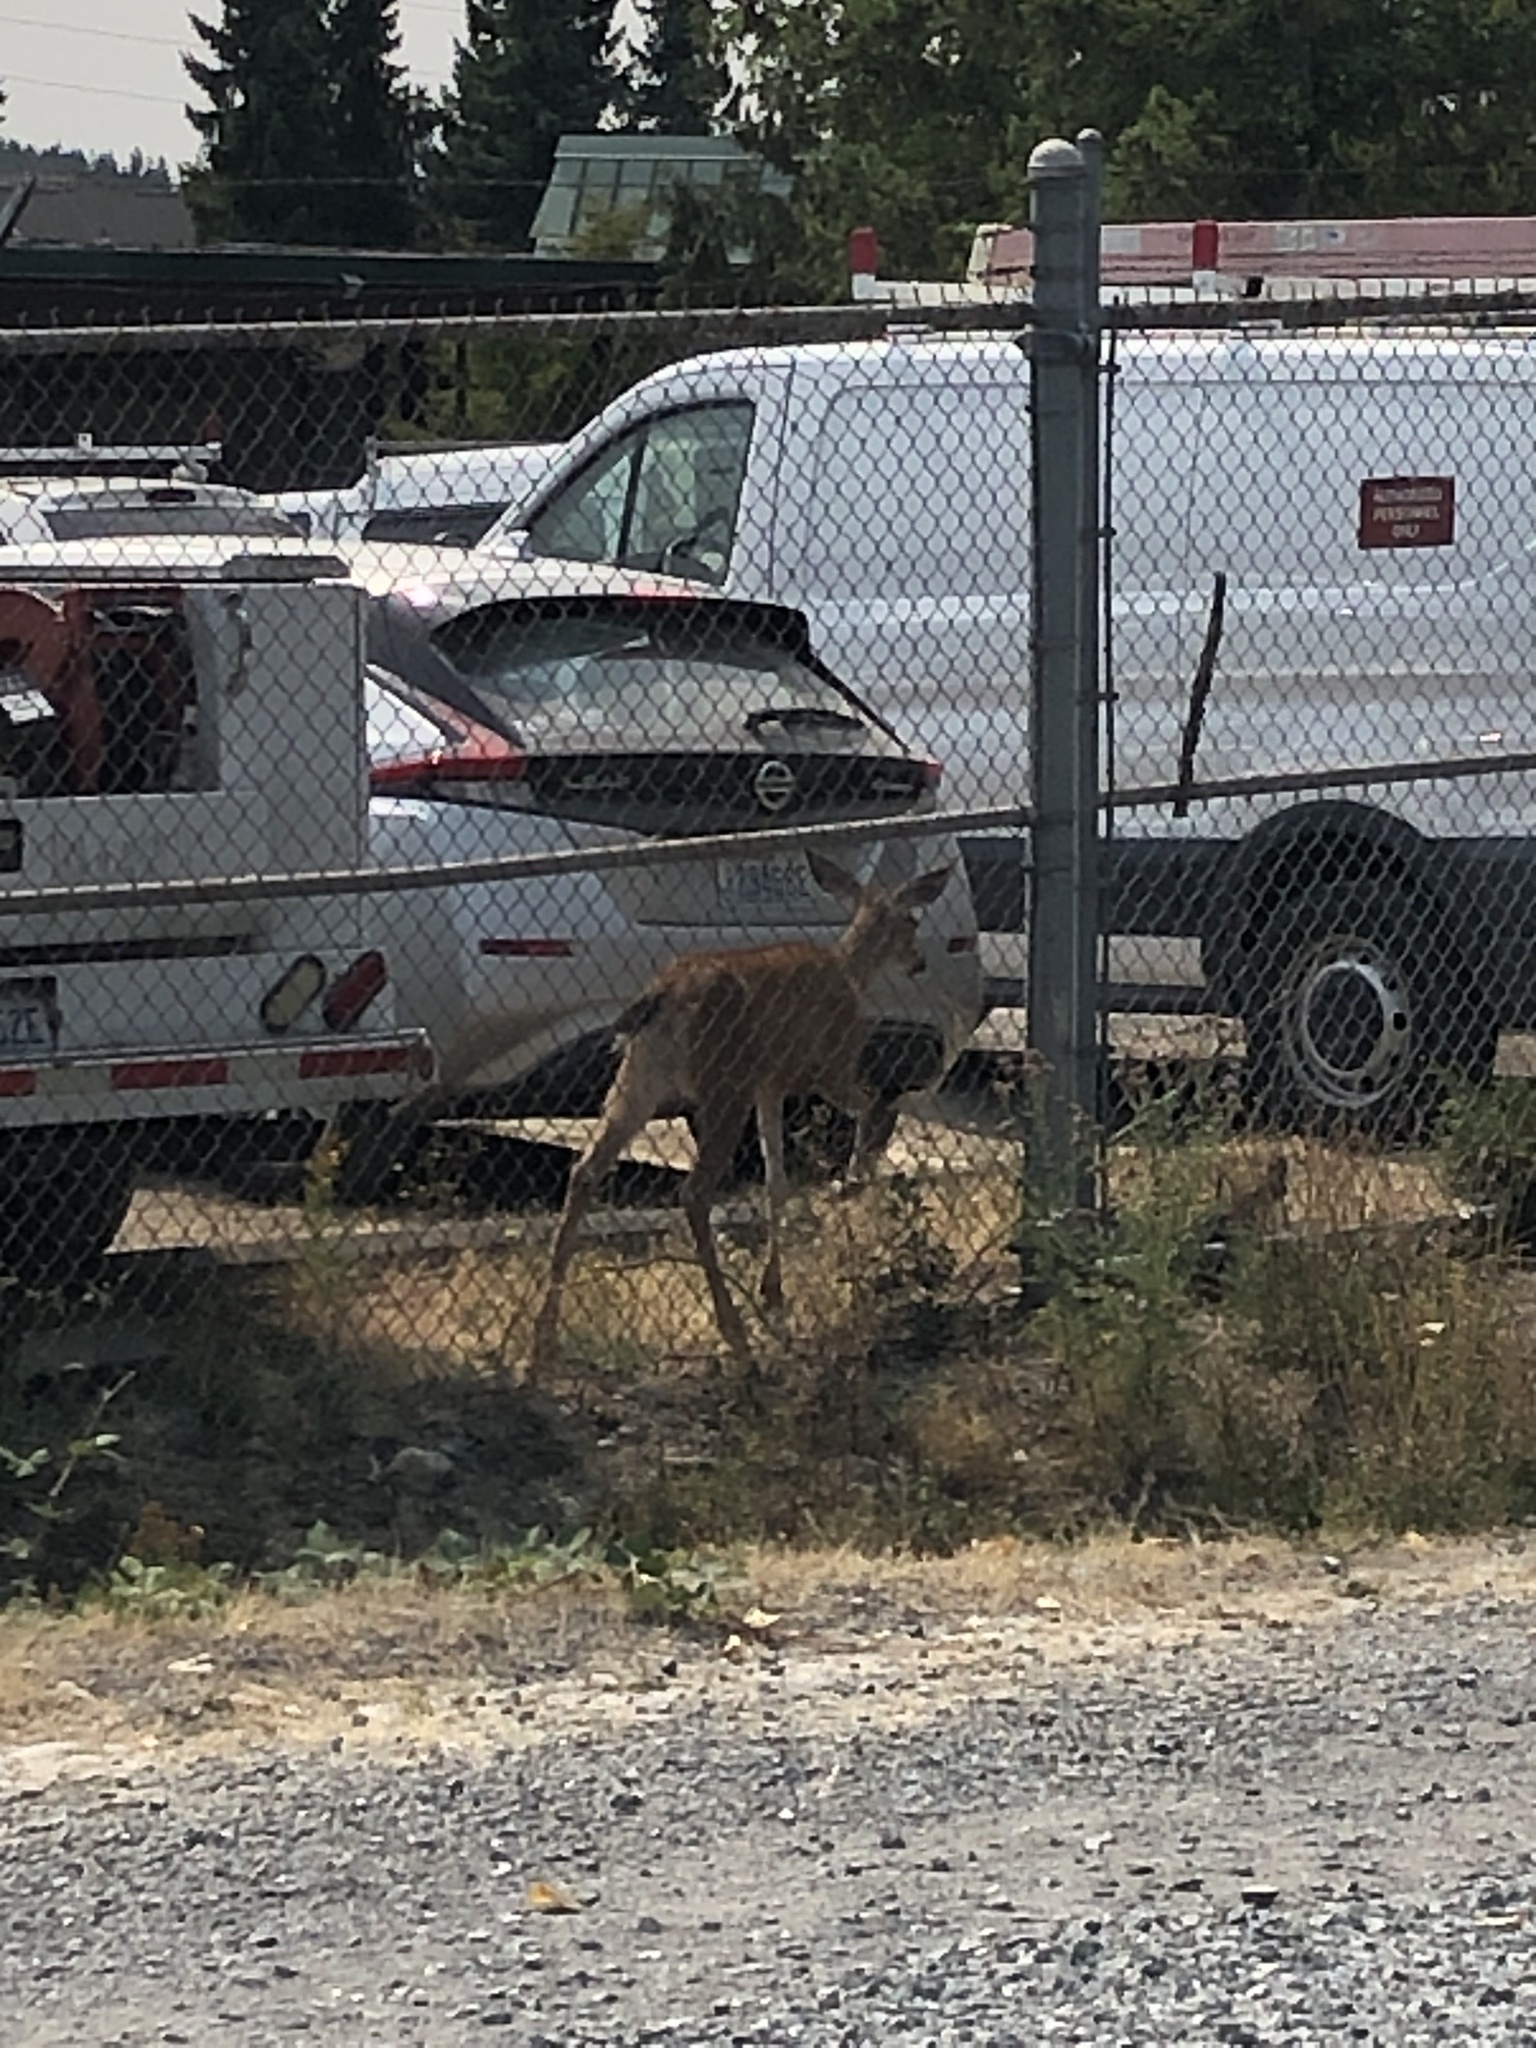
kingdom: Animalia
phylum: Chordata
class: Mammalia
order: Artiodactyla
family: Cervidae
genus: Odocoileus
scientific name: Odocoileus hemionus
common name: Mule deer
